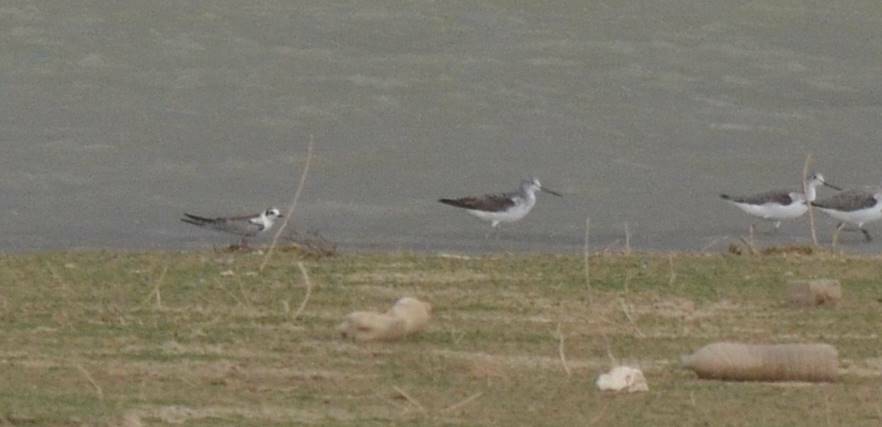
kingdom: Animalia
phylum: Chordata
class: Aves
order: Charadriiformes
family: Scolopacidae
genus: Tringa
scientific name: Tringa nebularia
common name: Common greenshank
